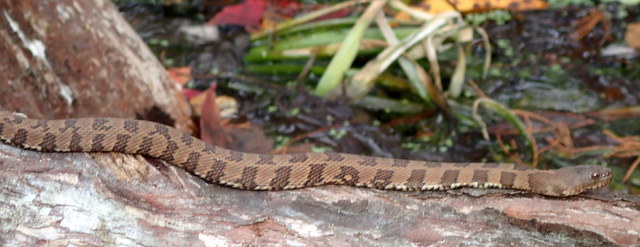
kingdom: Animalia
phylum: Chordata
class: Squamata
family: Colubridae
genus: Nerodia
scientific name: Nerodia taxispilota
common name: Brown water snake
